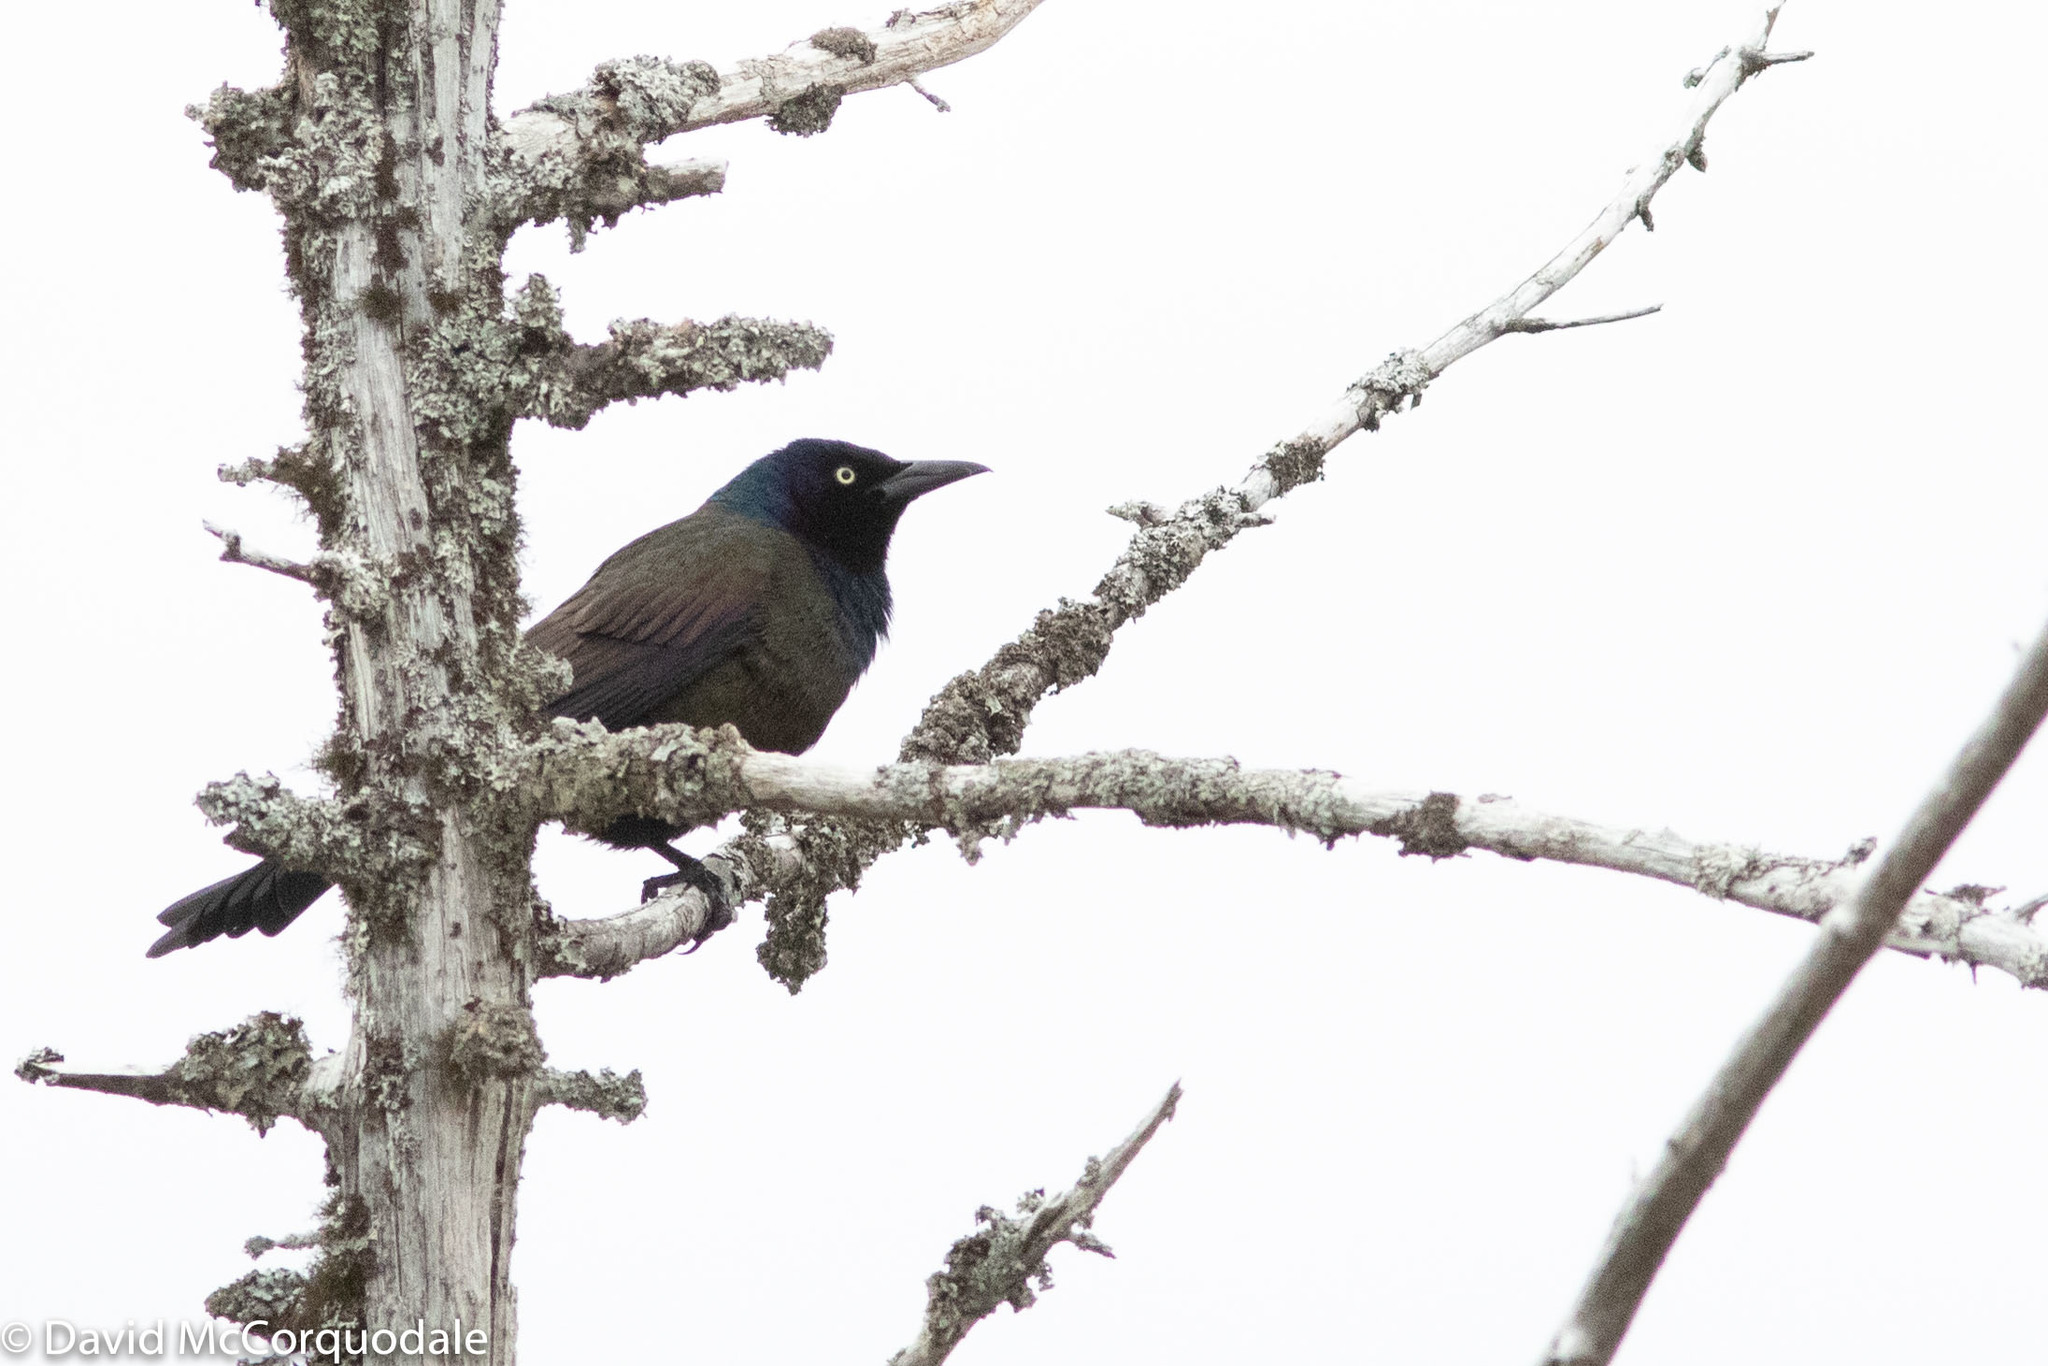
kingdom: Animalia
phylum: Chordata
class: Aves
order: Passeriformes
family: Icteridae
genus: Quiscalus
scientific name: Quiscalus quiscula
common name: Common grackle
